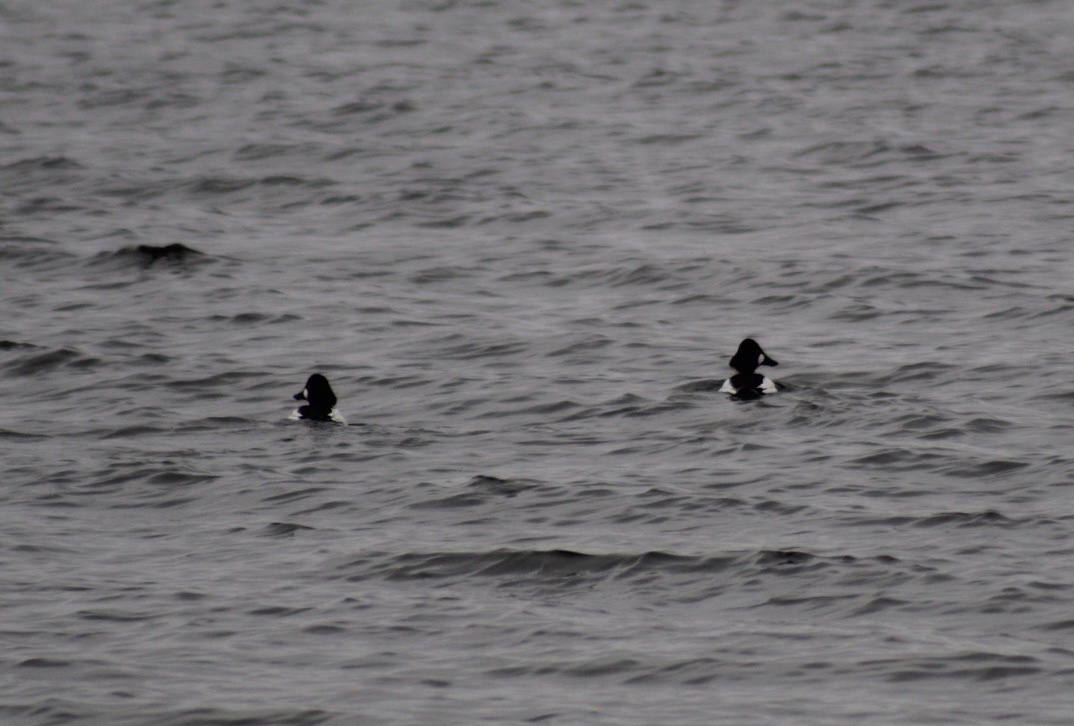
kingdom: Animalia
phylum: Chordata
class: Aves
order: Anseriformes
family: Anatidae
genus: Bucephala
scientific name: Bucephala clangula
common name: Common goldeneye
